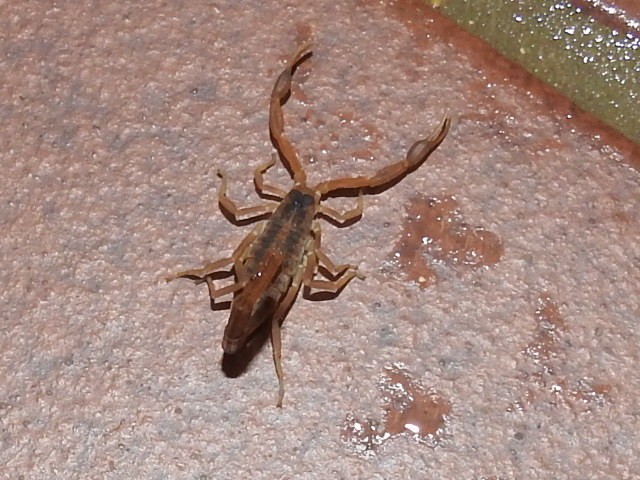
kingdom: Animalia
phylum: Arthropoda
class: Arachnida
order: Scorpiones
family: Buthidae
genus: Centruroides
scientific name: Centruroides vittatus
